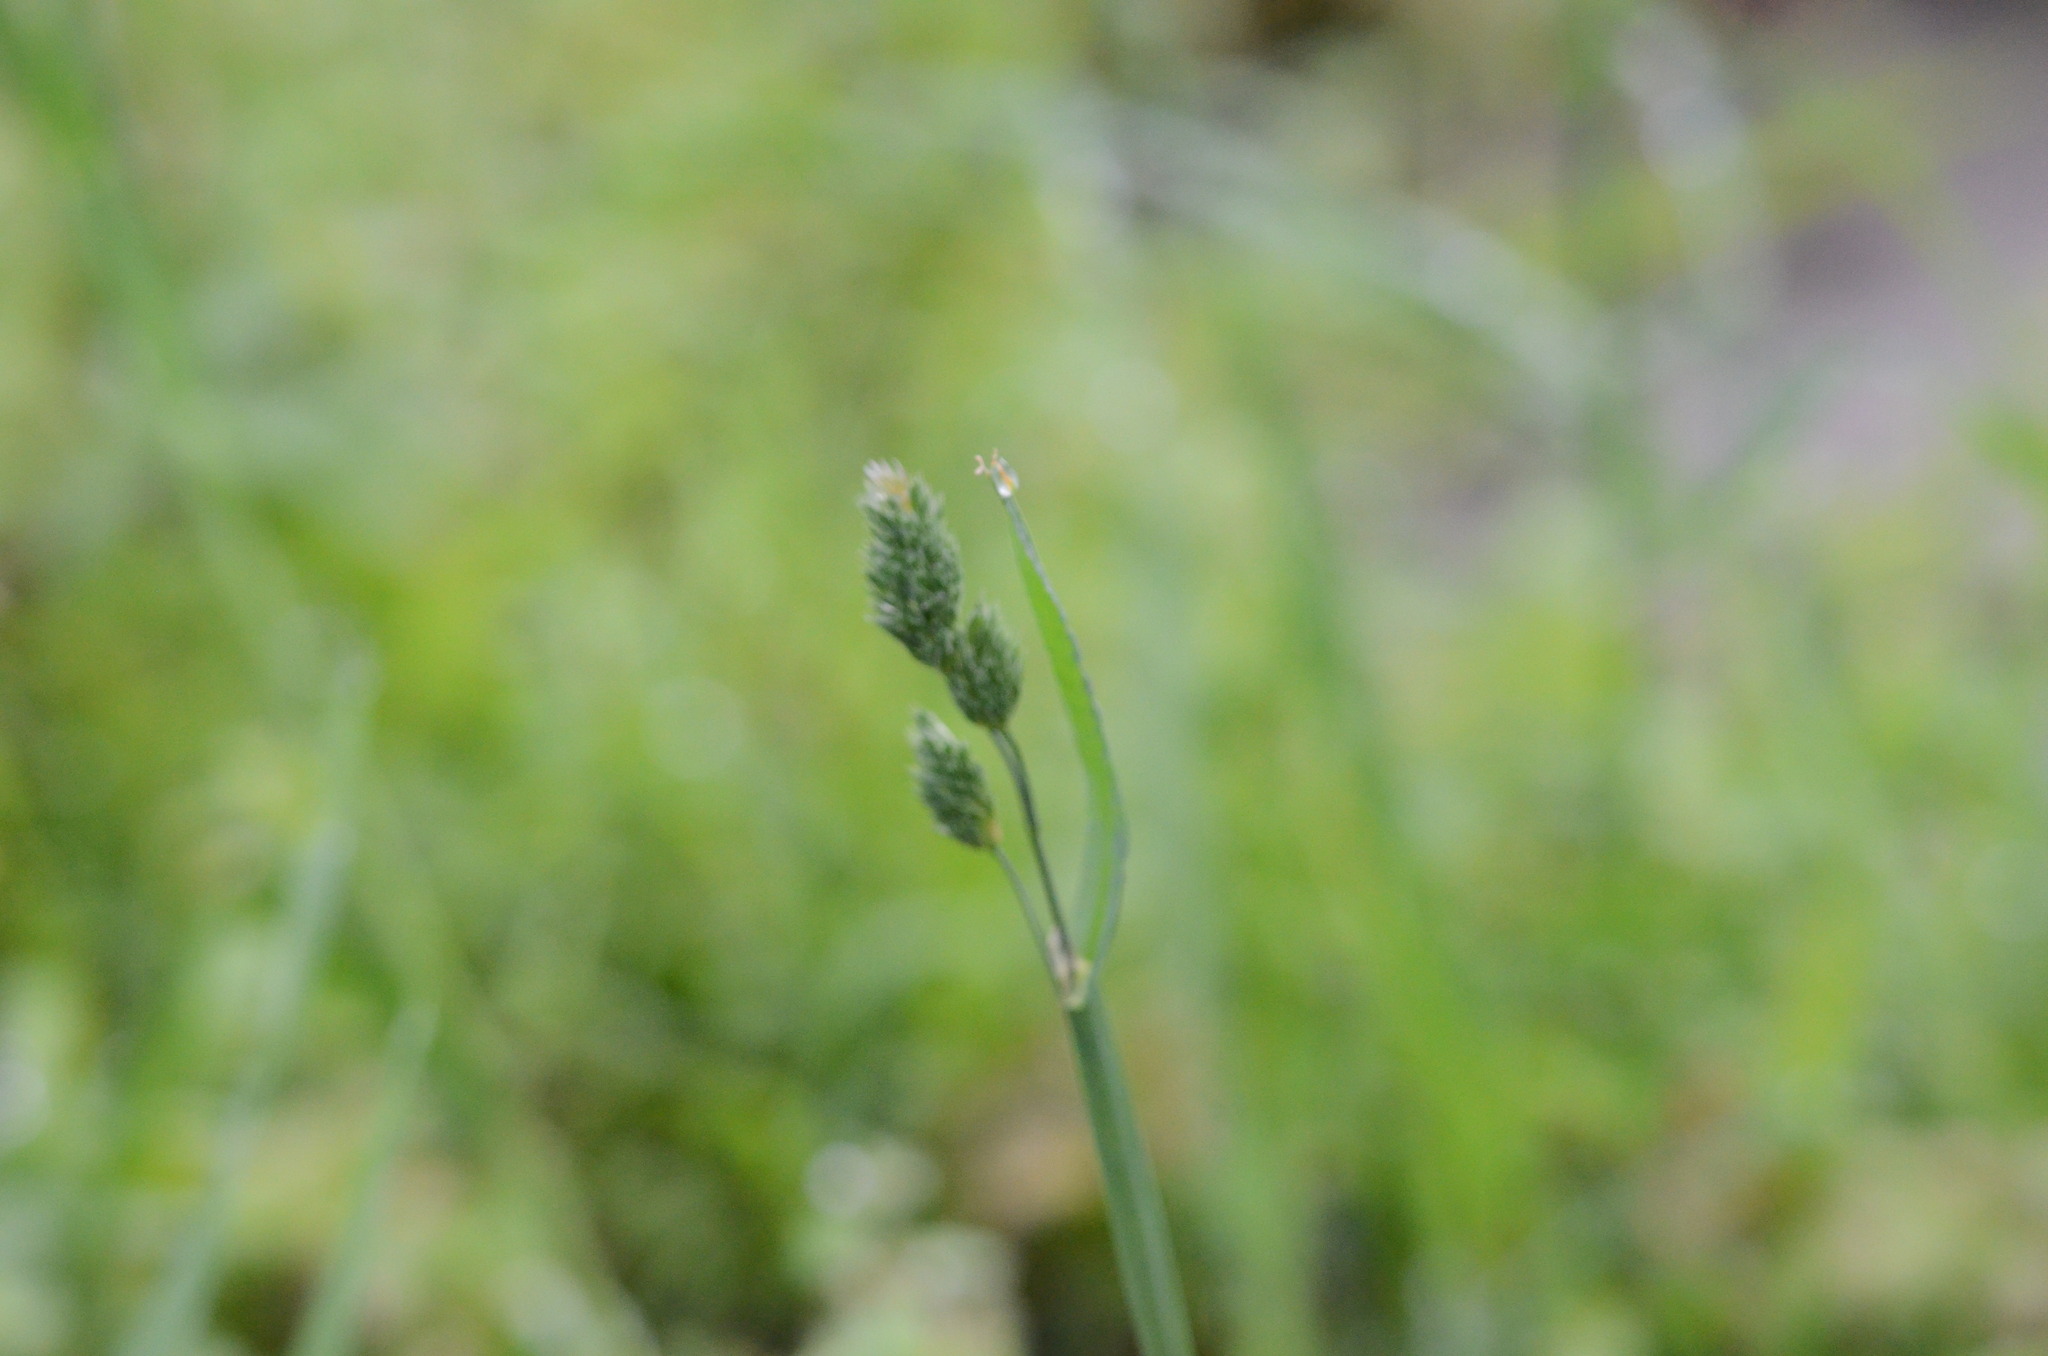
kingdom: Plantae
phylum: Tracheophyta
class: Liliopsida
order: Poales
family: Poaceae
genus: Dactylis
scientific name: Dactylis glomerata
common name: Orchardgrass
